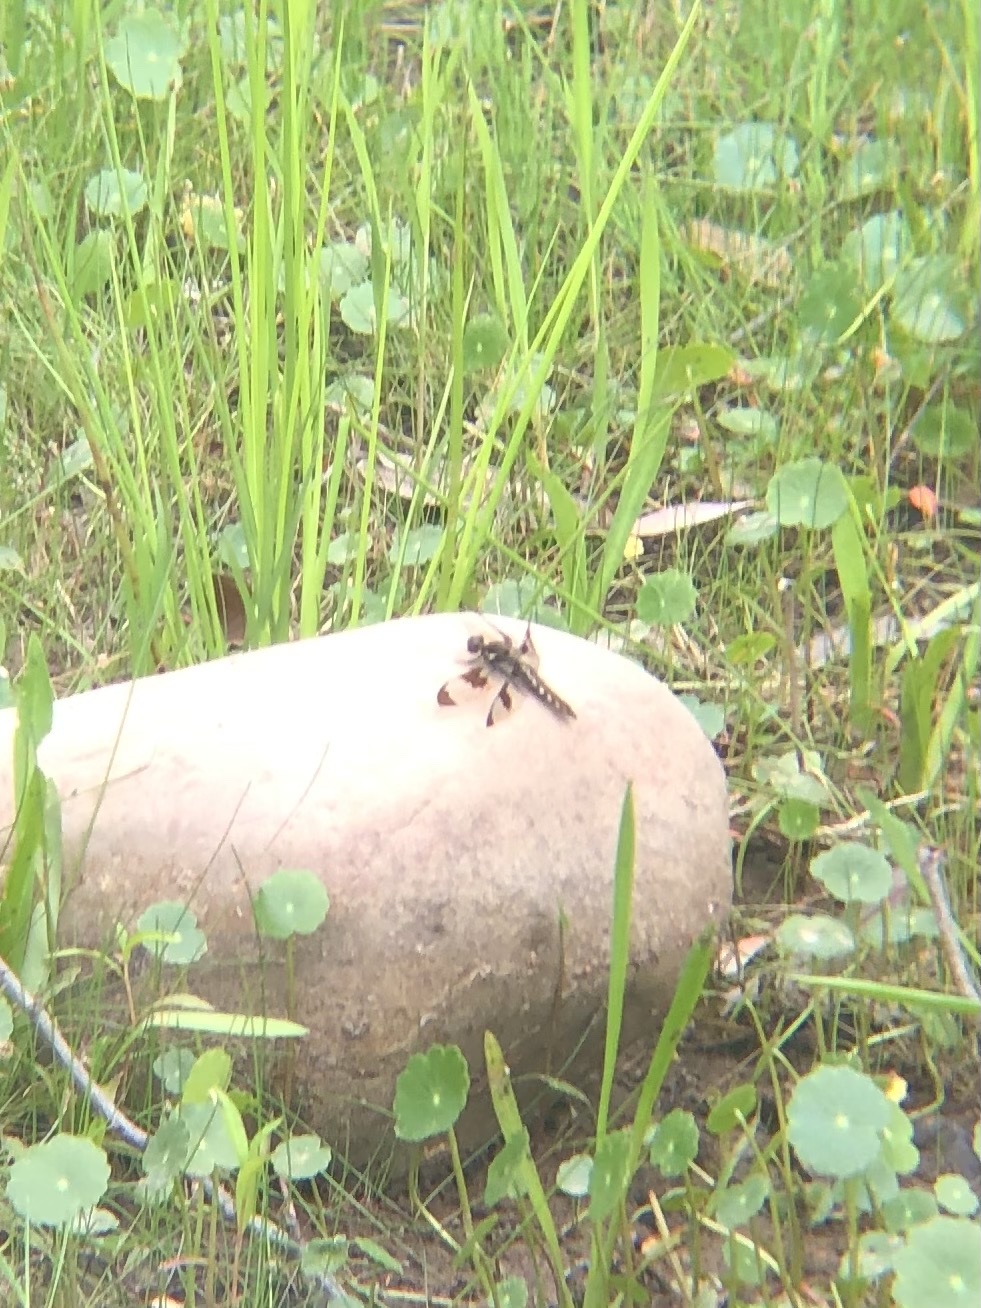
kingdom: Animalia
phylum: Arthropoda
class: Insecta
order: Odonata
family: Libellulidae
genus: Plathemis
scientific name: Plathemis lydia
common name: Common whitetail
